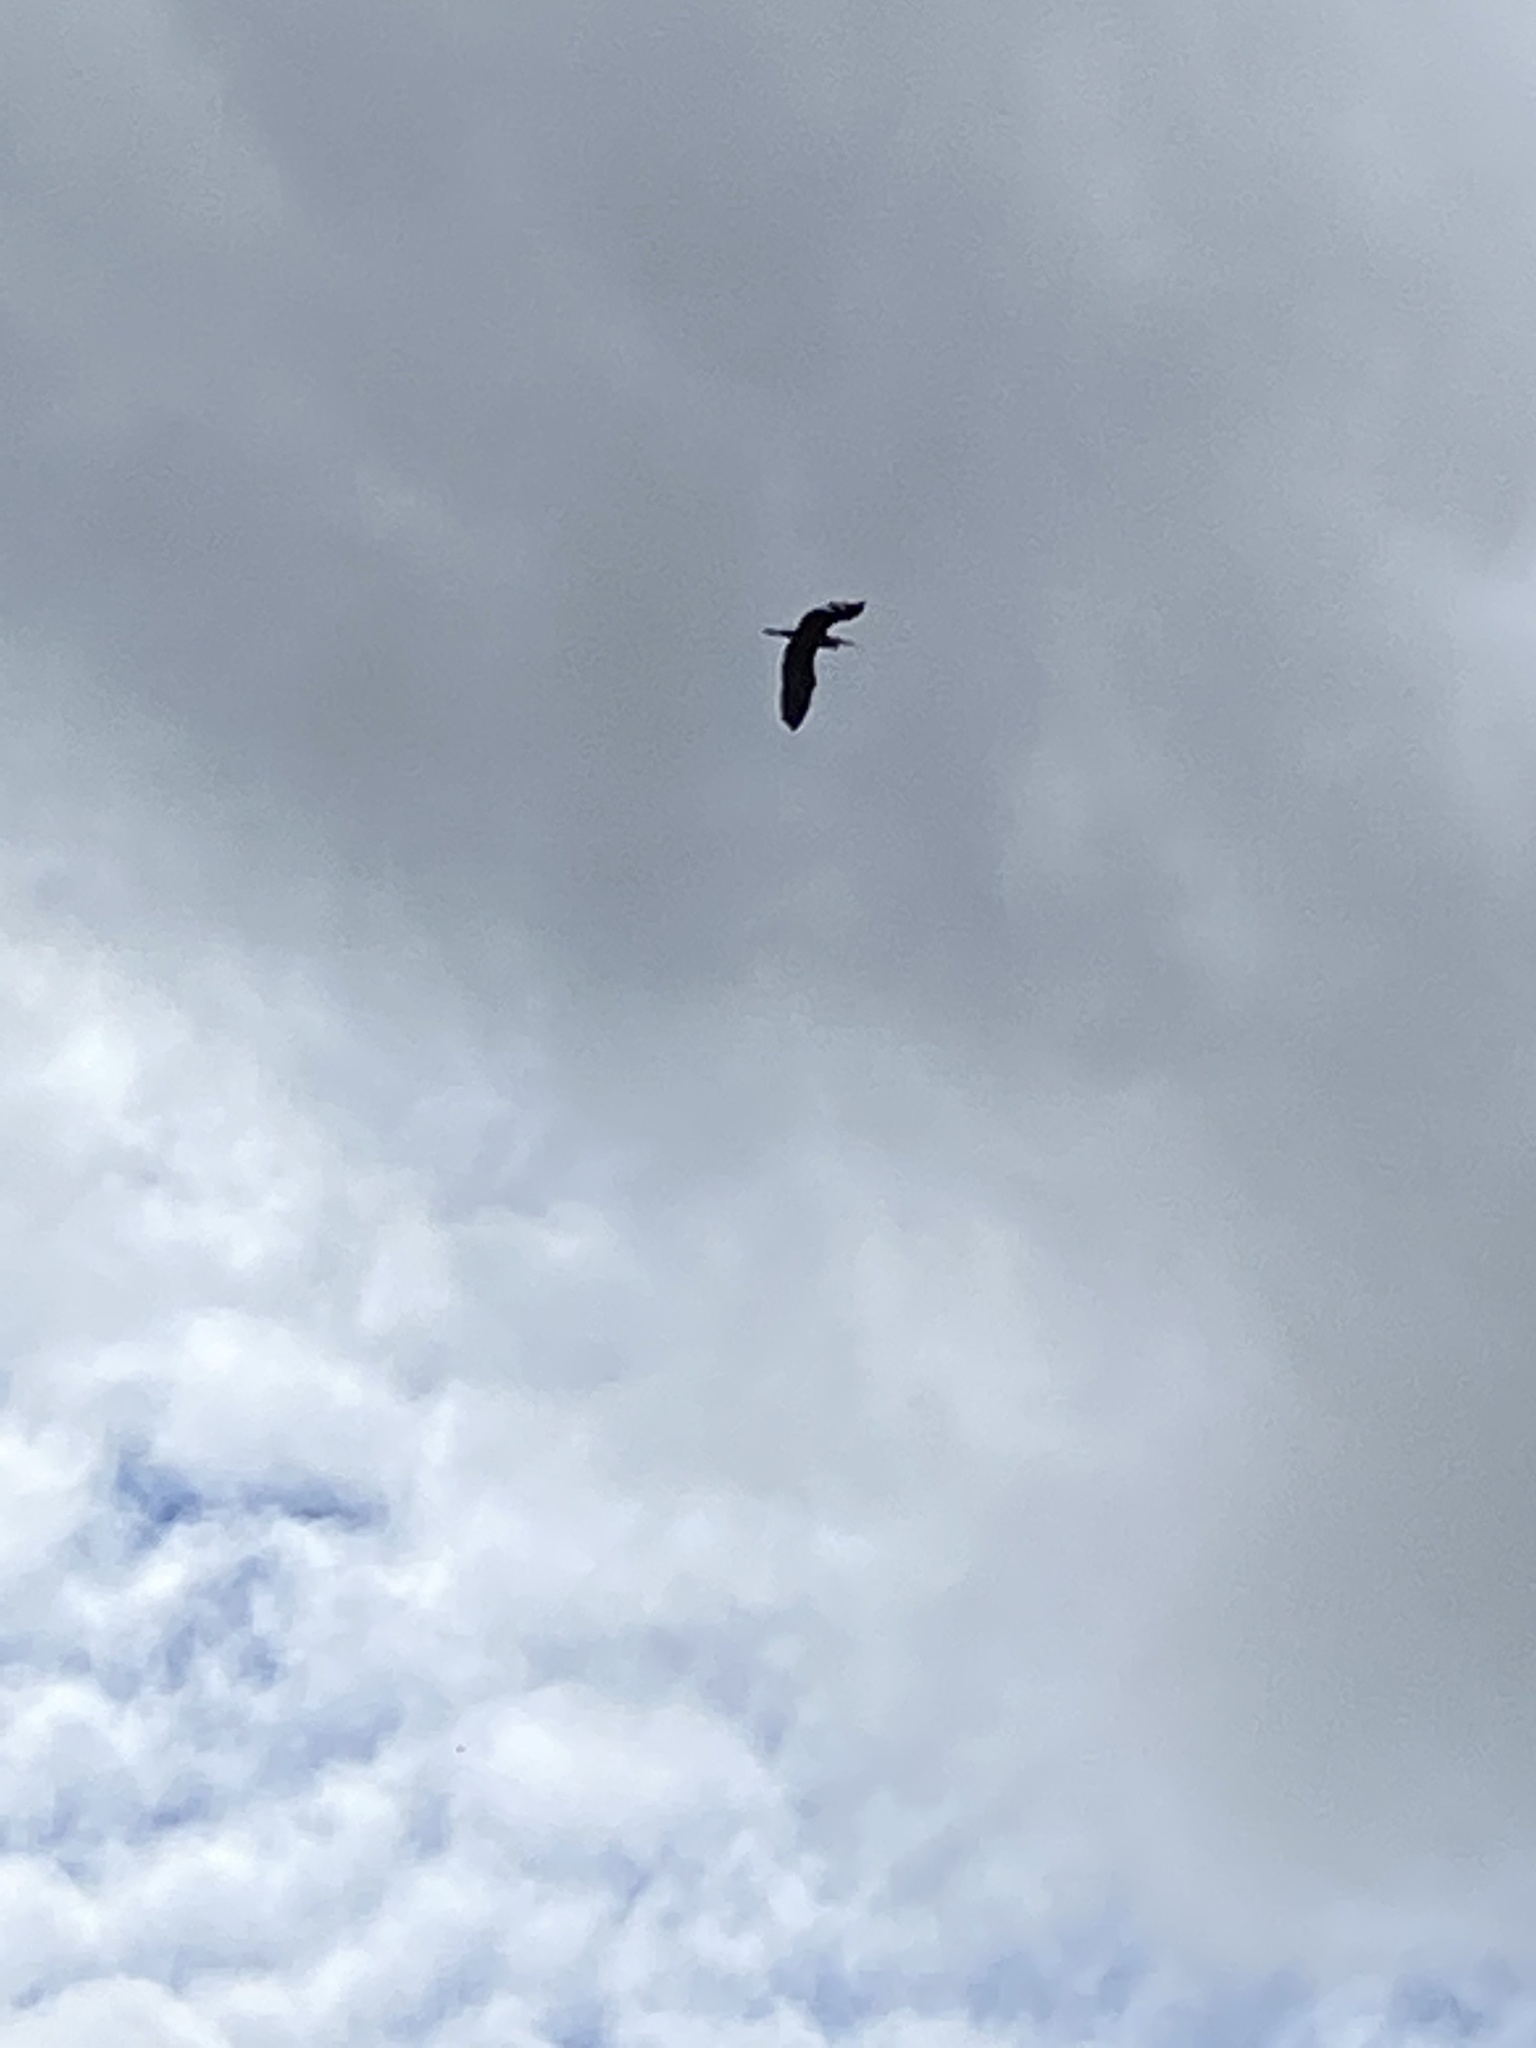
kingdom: Animalia
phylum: Chordata
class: Aves
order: Pelecaniformes
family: Ardeidae
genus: Ardea
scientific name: Ardea herodias
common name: Great blue heron
